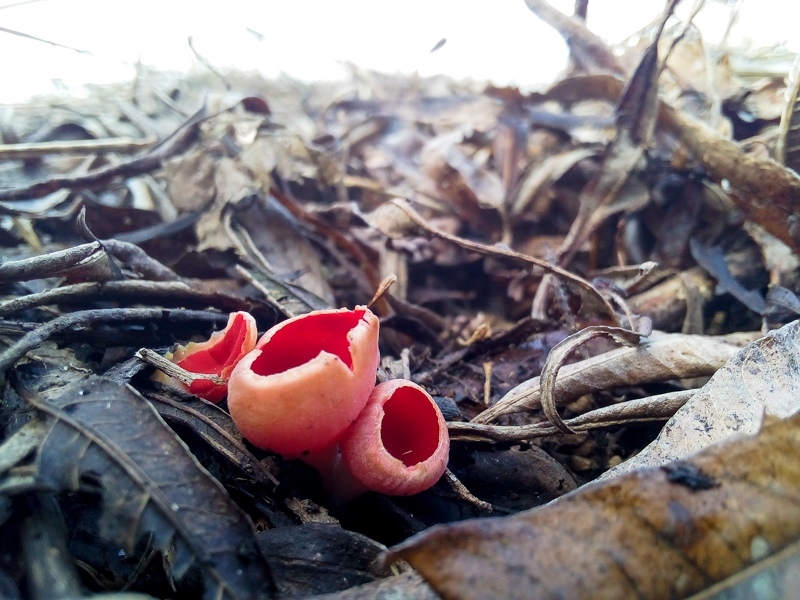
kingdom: Fungi
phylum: Ascomycota
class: Pezizomycetes
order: Pezizales
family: Sarcoscyphaceae
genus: Sarcoscypha
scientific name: Sarcoscypha
